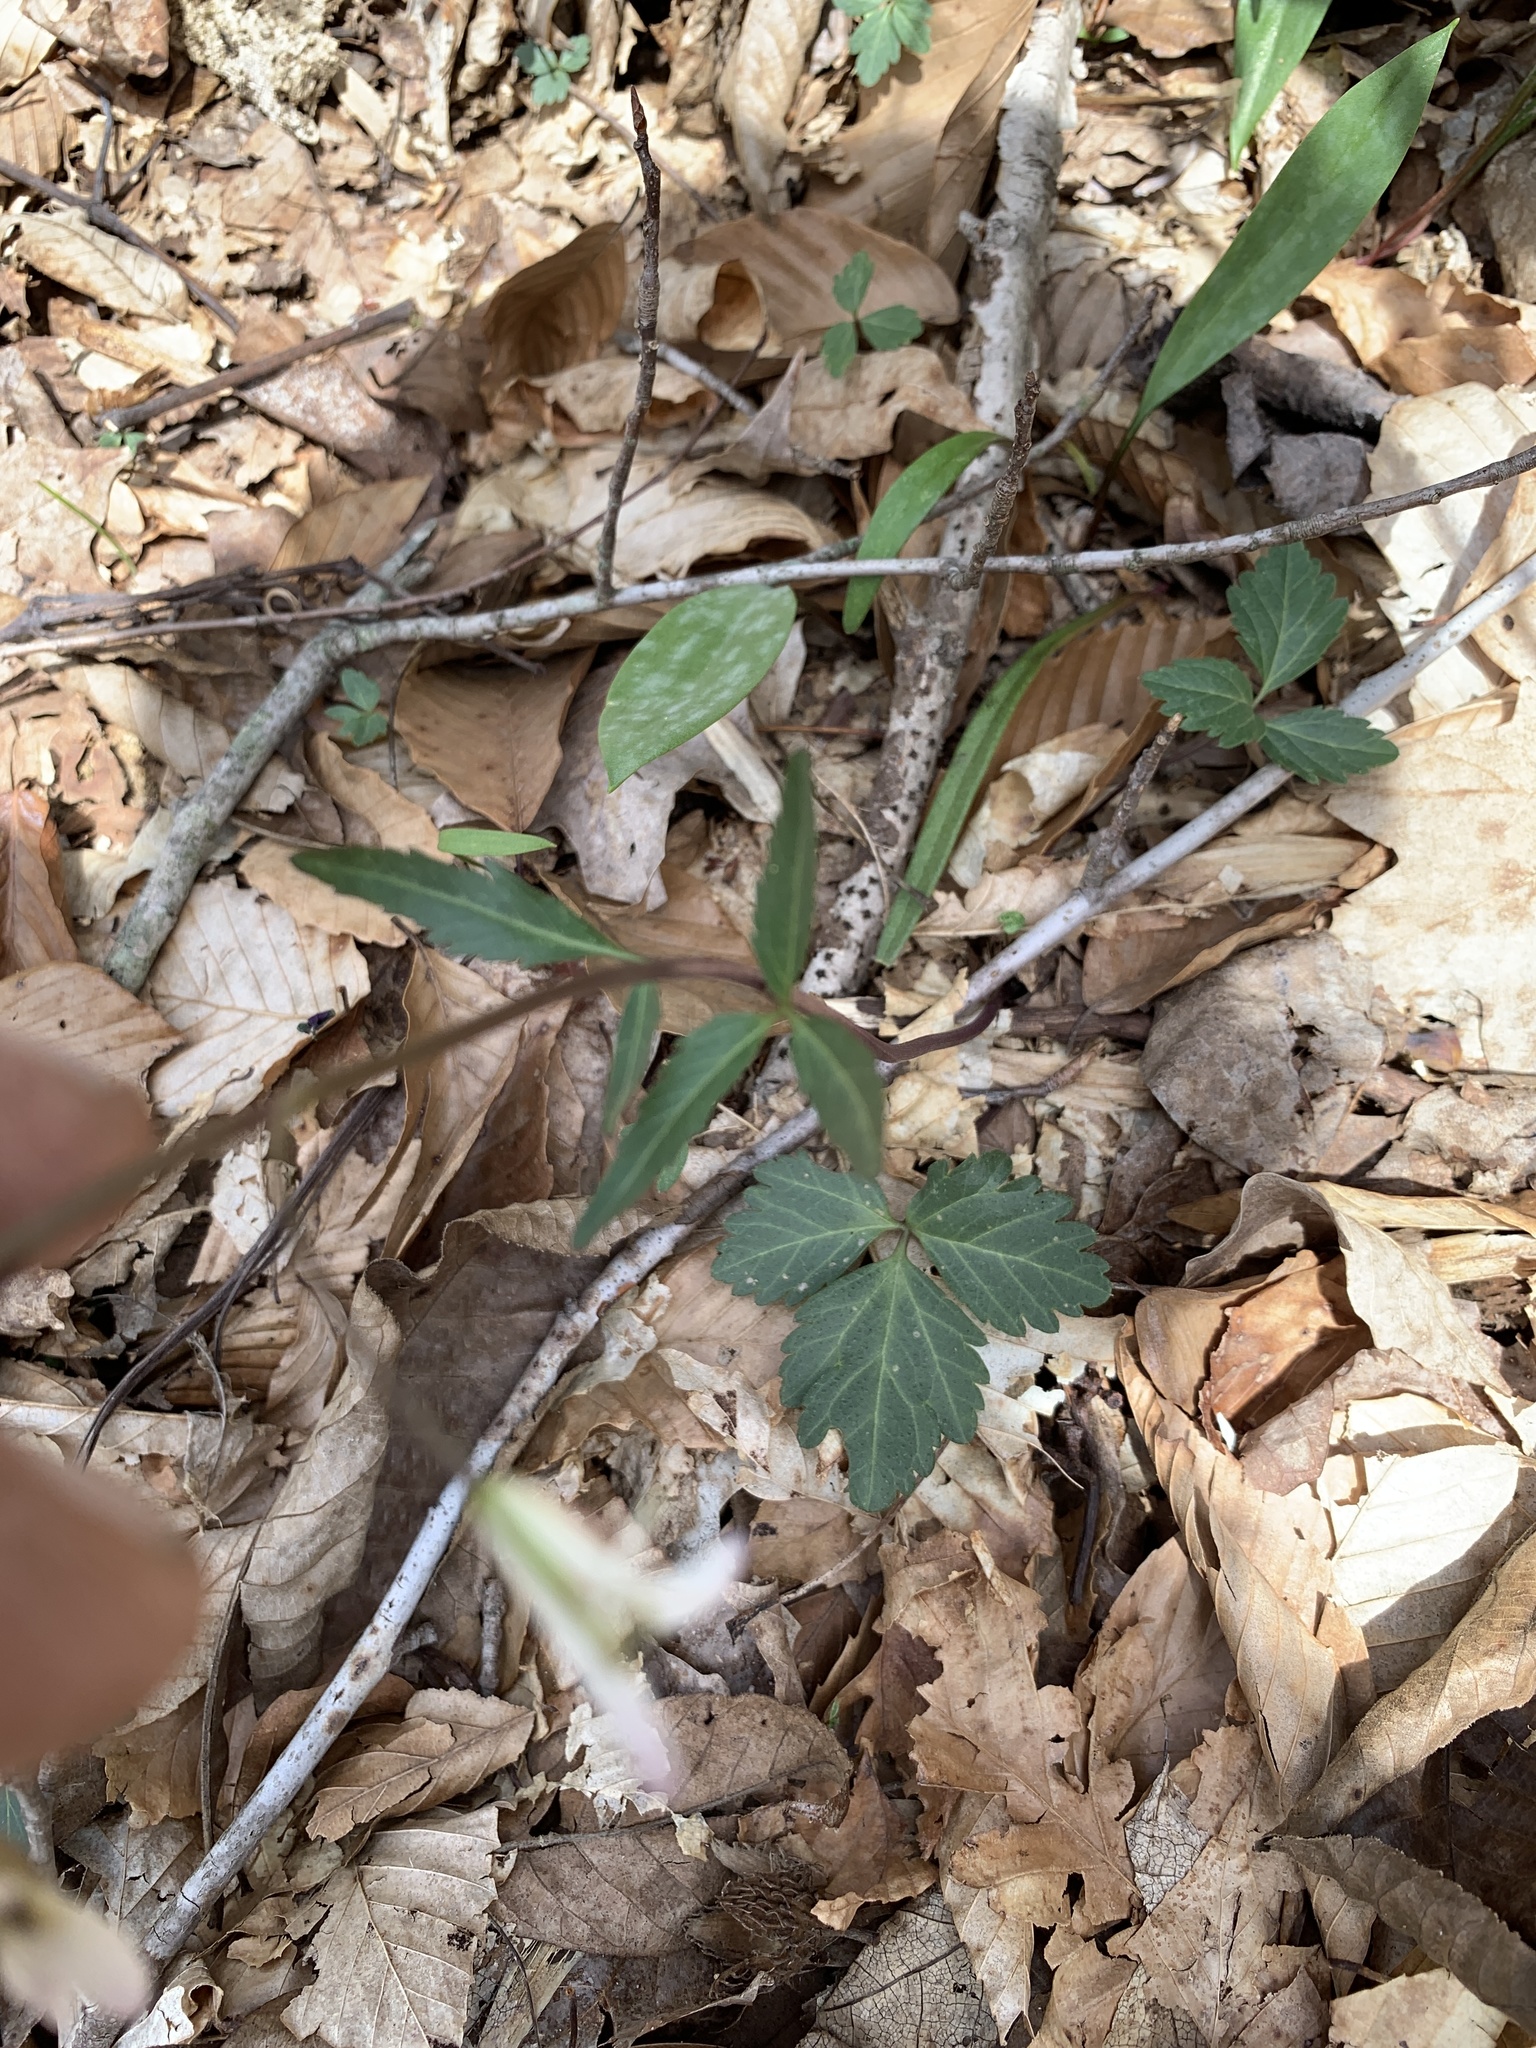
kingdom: Plantae
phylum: Tracheophyta
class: Magnoliopsida
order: Brassicales
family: Brassicaceae
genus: Cardamine
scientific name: Cardamine angustata
